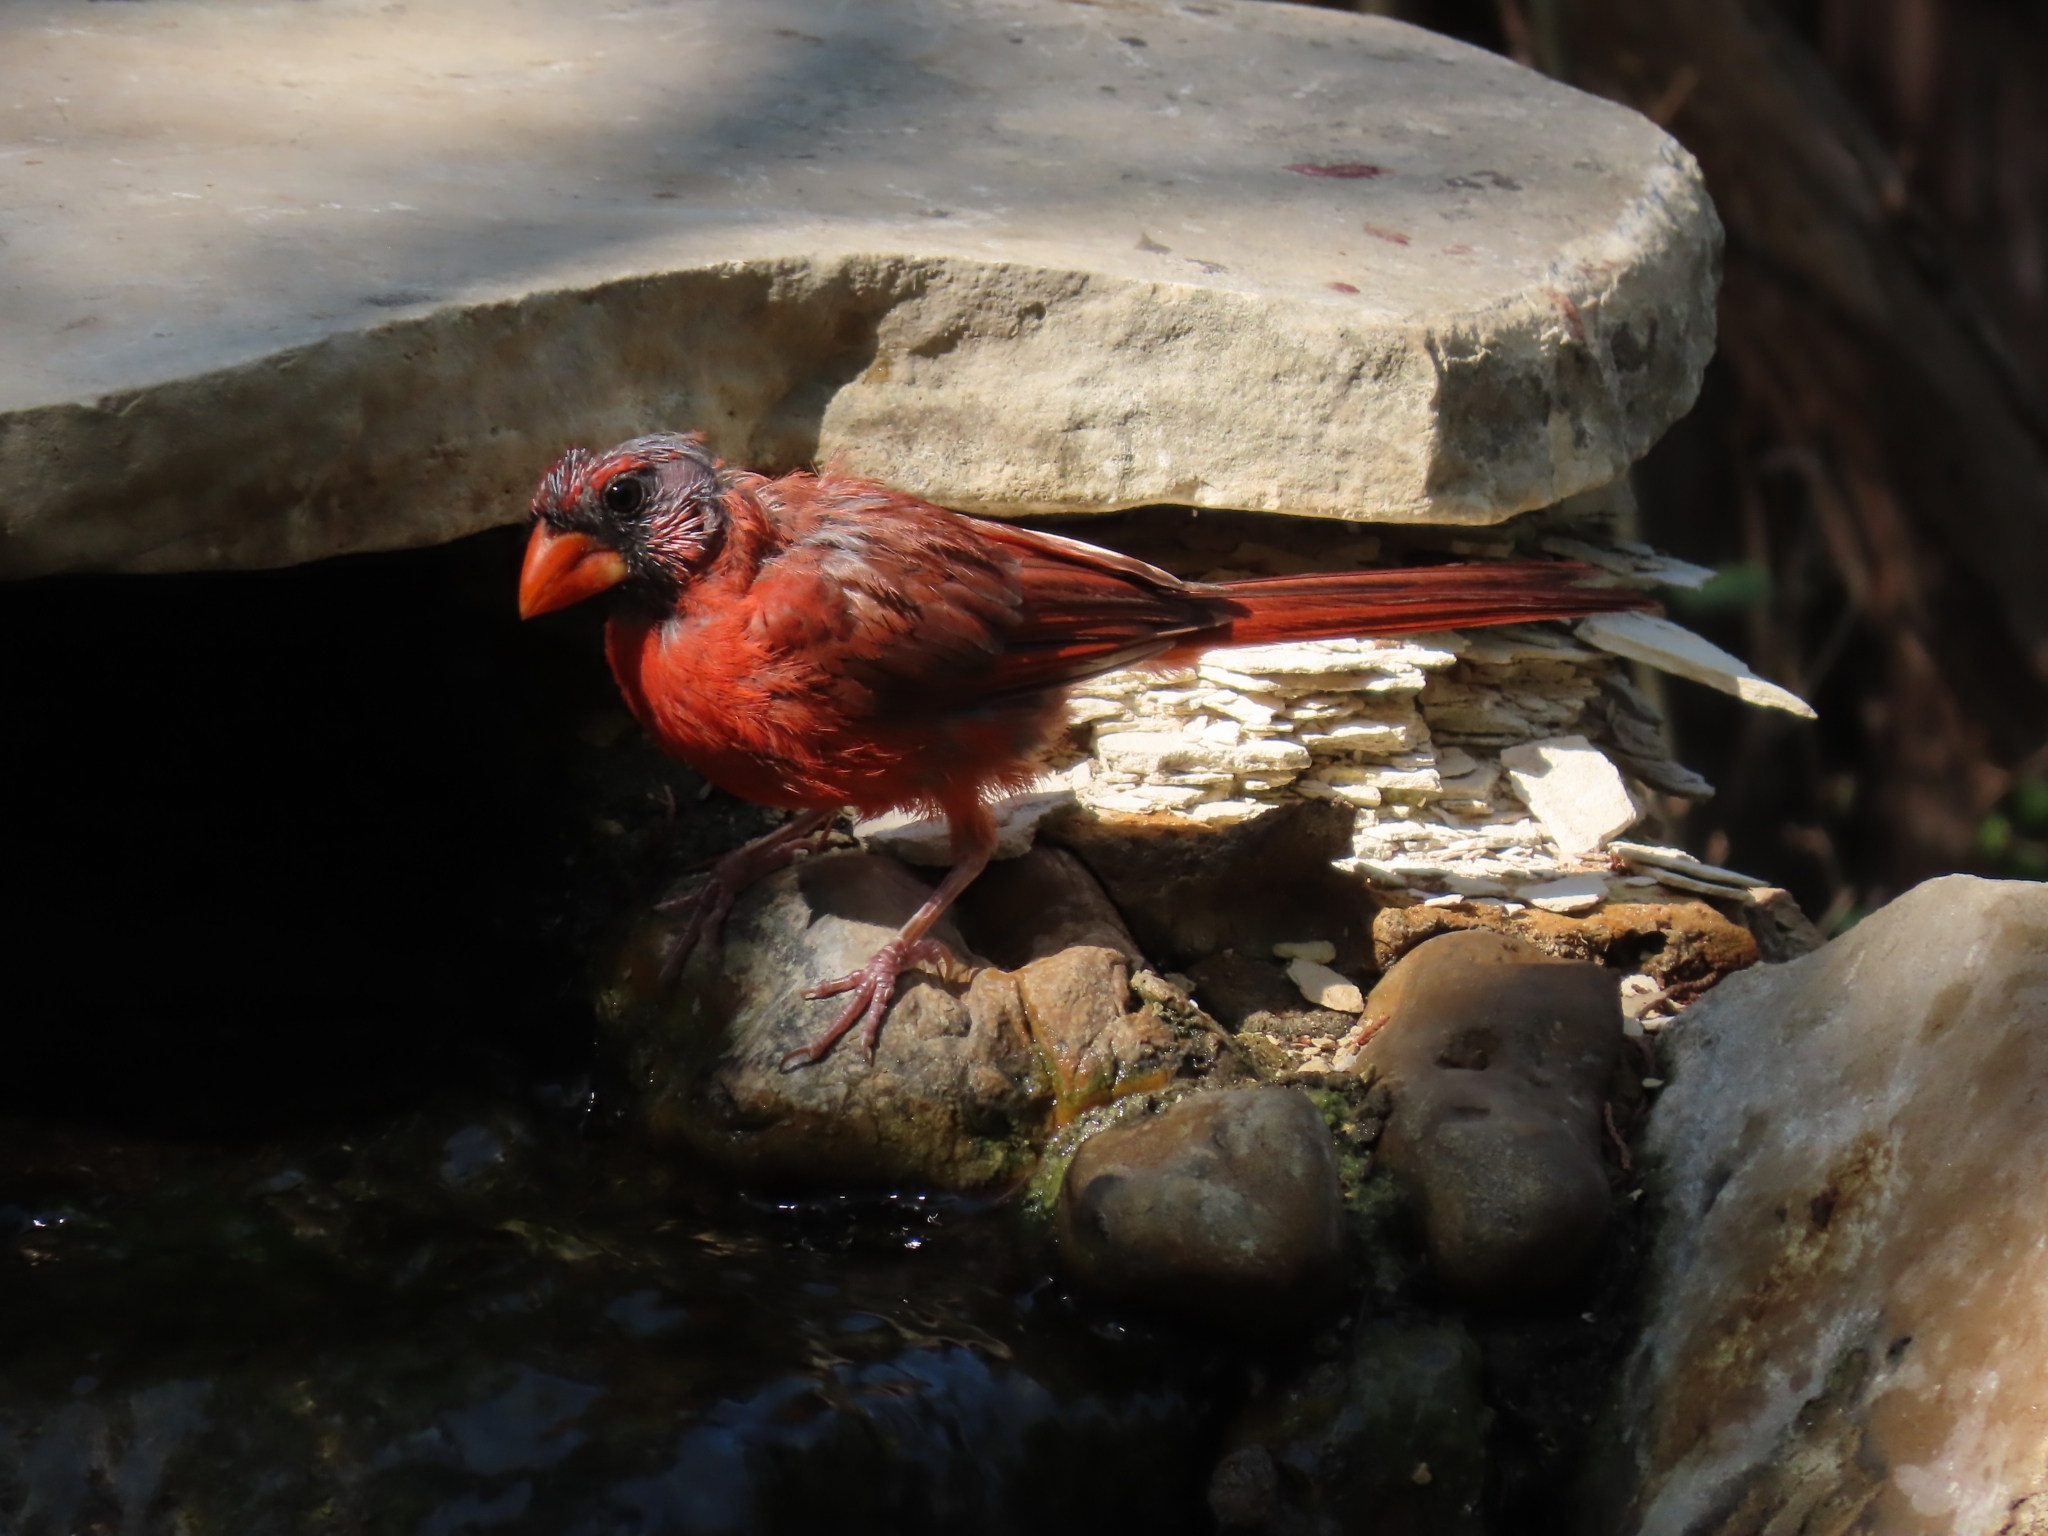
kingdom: Animalia
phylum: Chordata
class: Aves
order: Passeriformes
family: Cardinalidae
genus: Cardinalis
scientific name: Cardinalis cardinalis
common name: Northern cardinal
